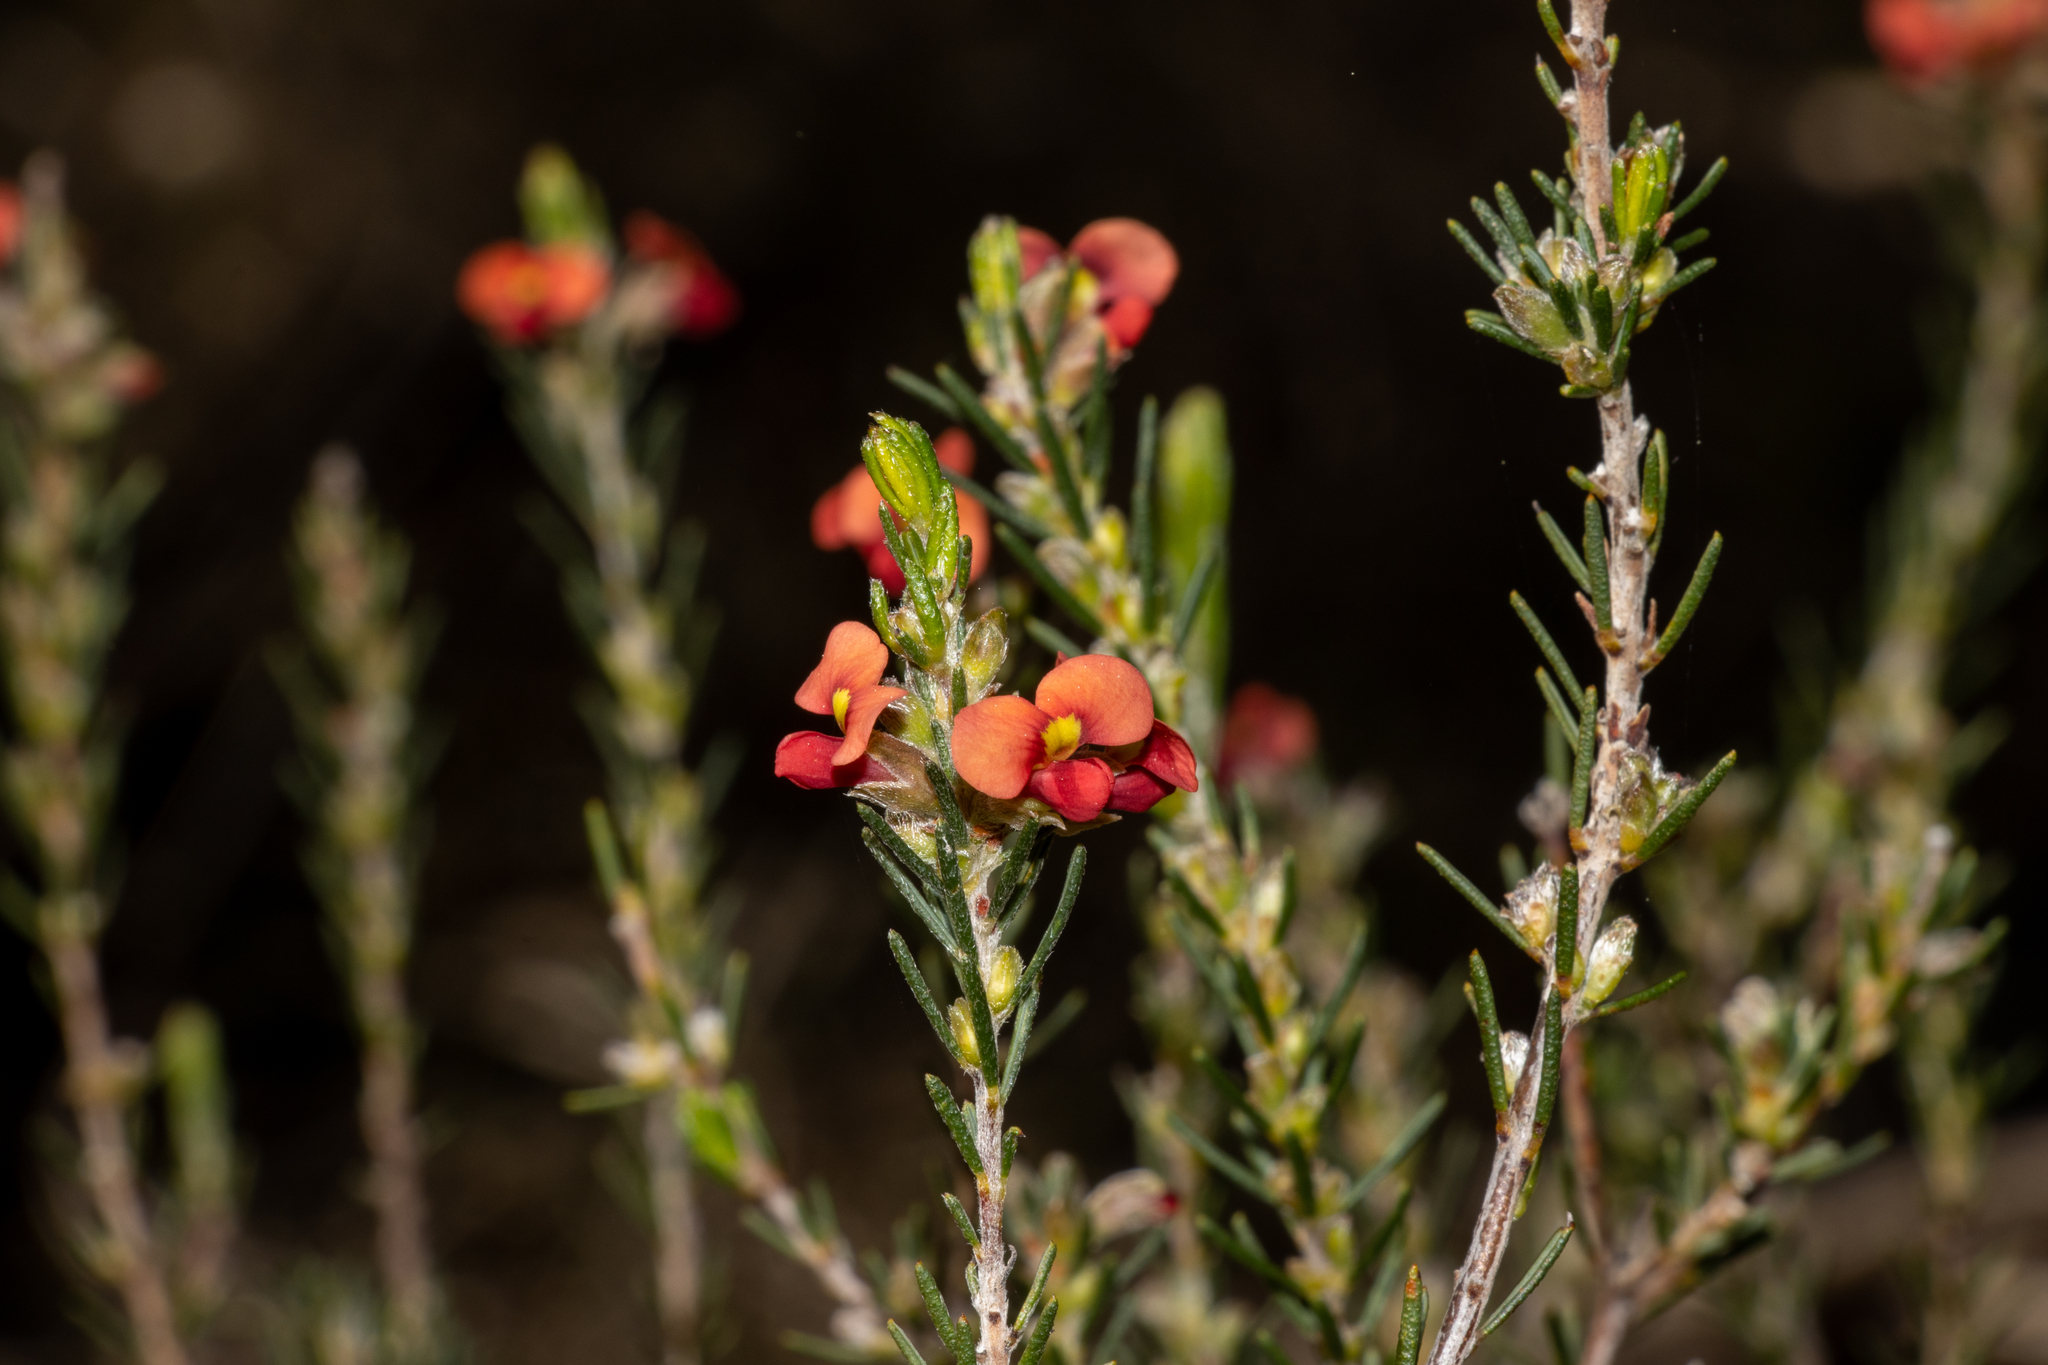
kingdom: Plantae
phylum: Tracheophyta
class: Magnoliopsida
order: Fabales
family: Fabaceae
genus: Dillwynia
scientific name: Dillwynia sericea
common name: Showy parrot-pea
